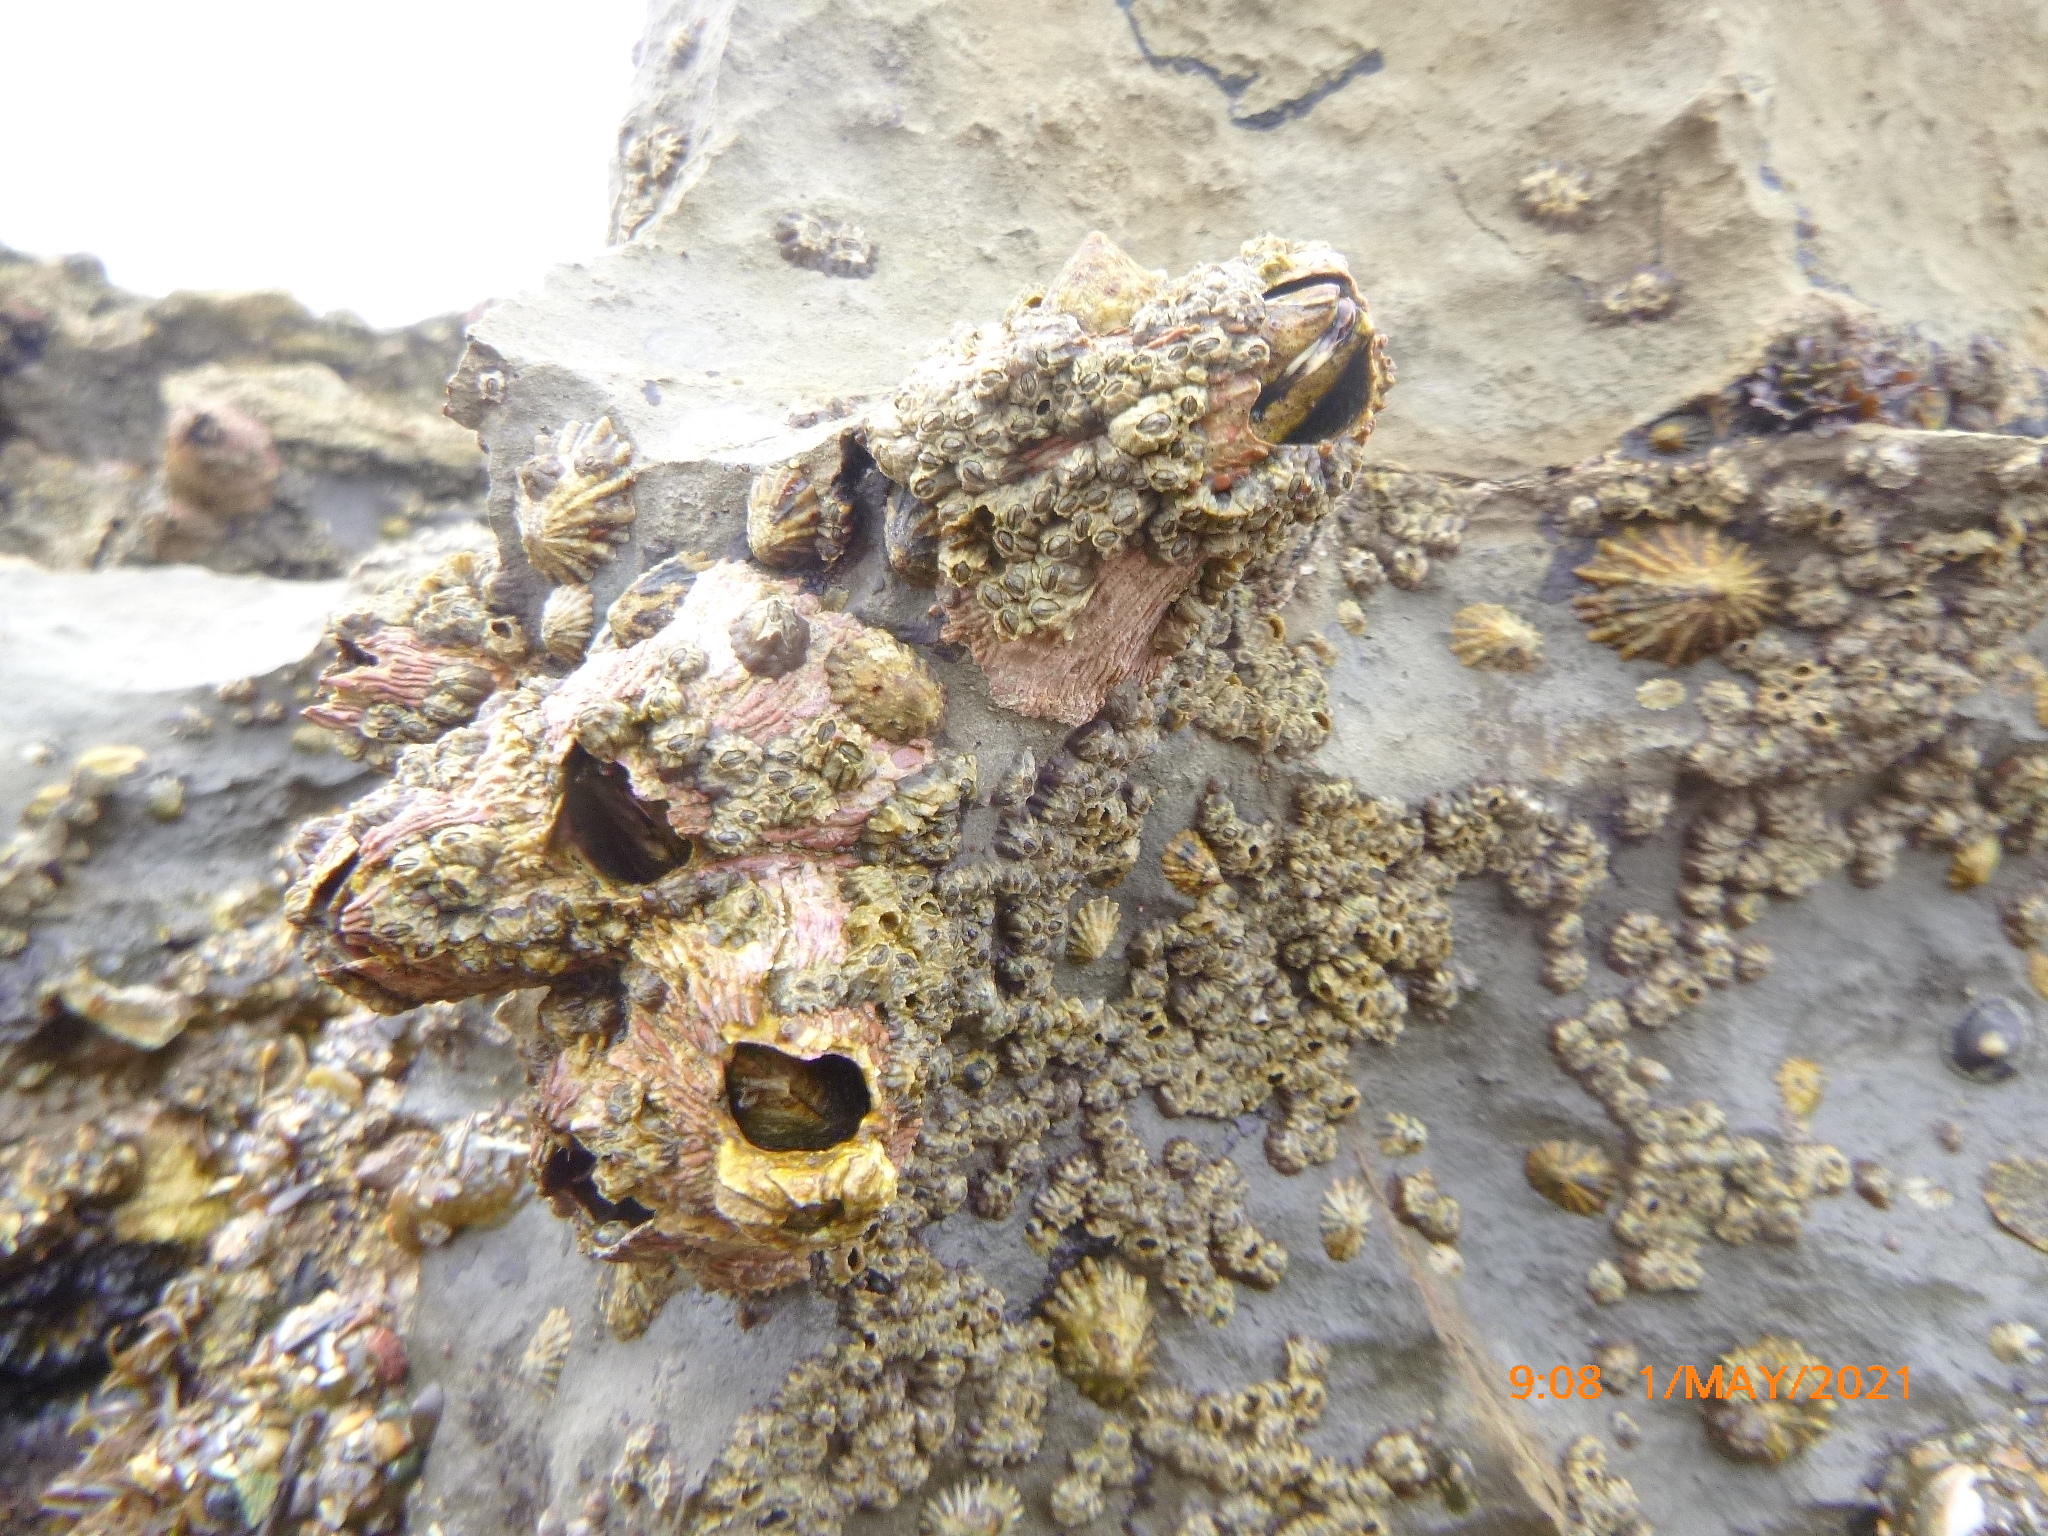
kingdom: Animalia
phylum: Arthropoda
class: Maxillopoda
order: Sessilia
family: Tetraclitidae
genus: Tetraclita
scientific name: Tetraclita rubescens
